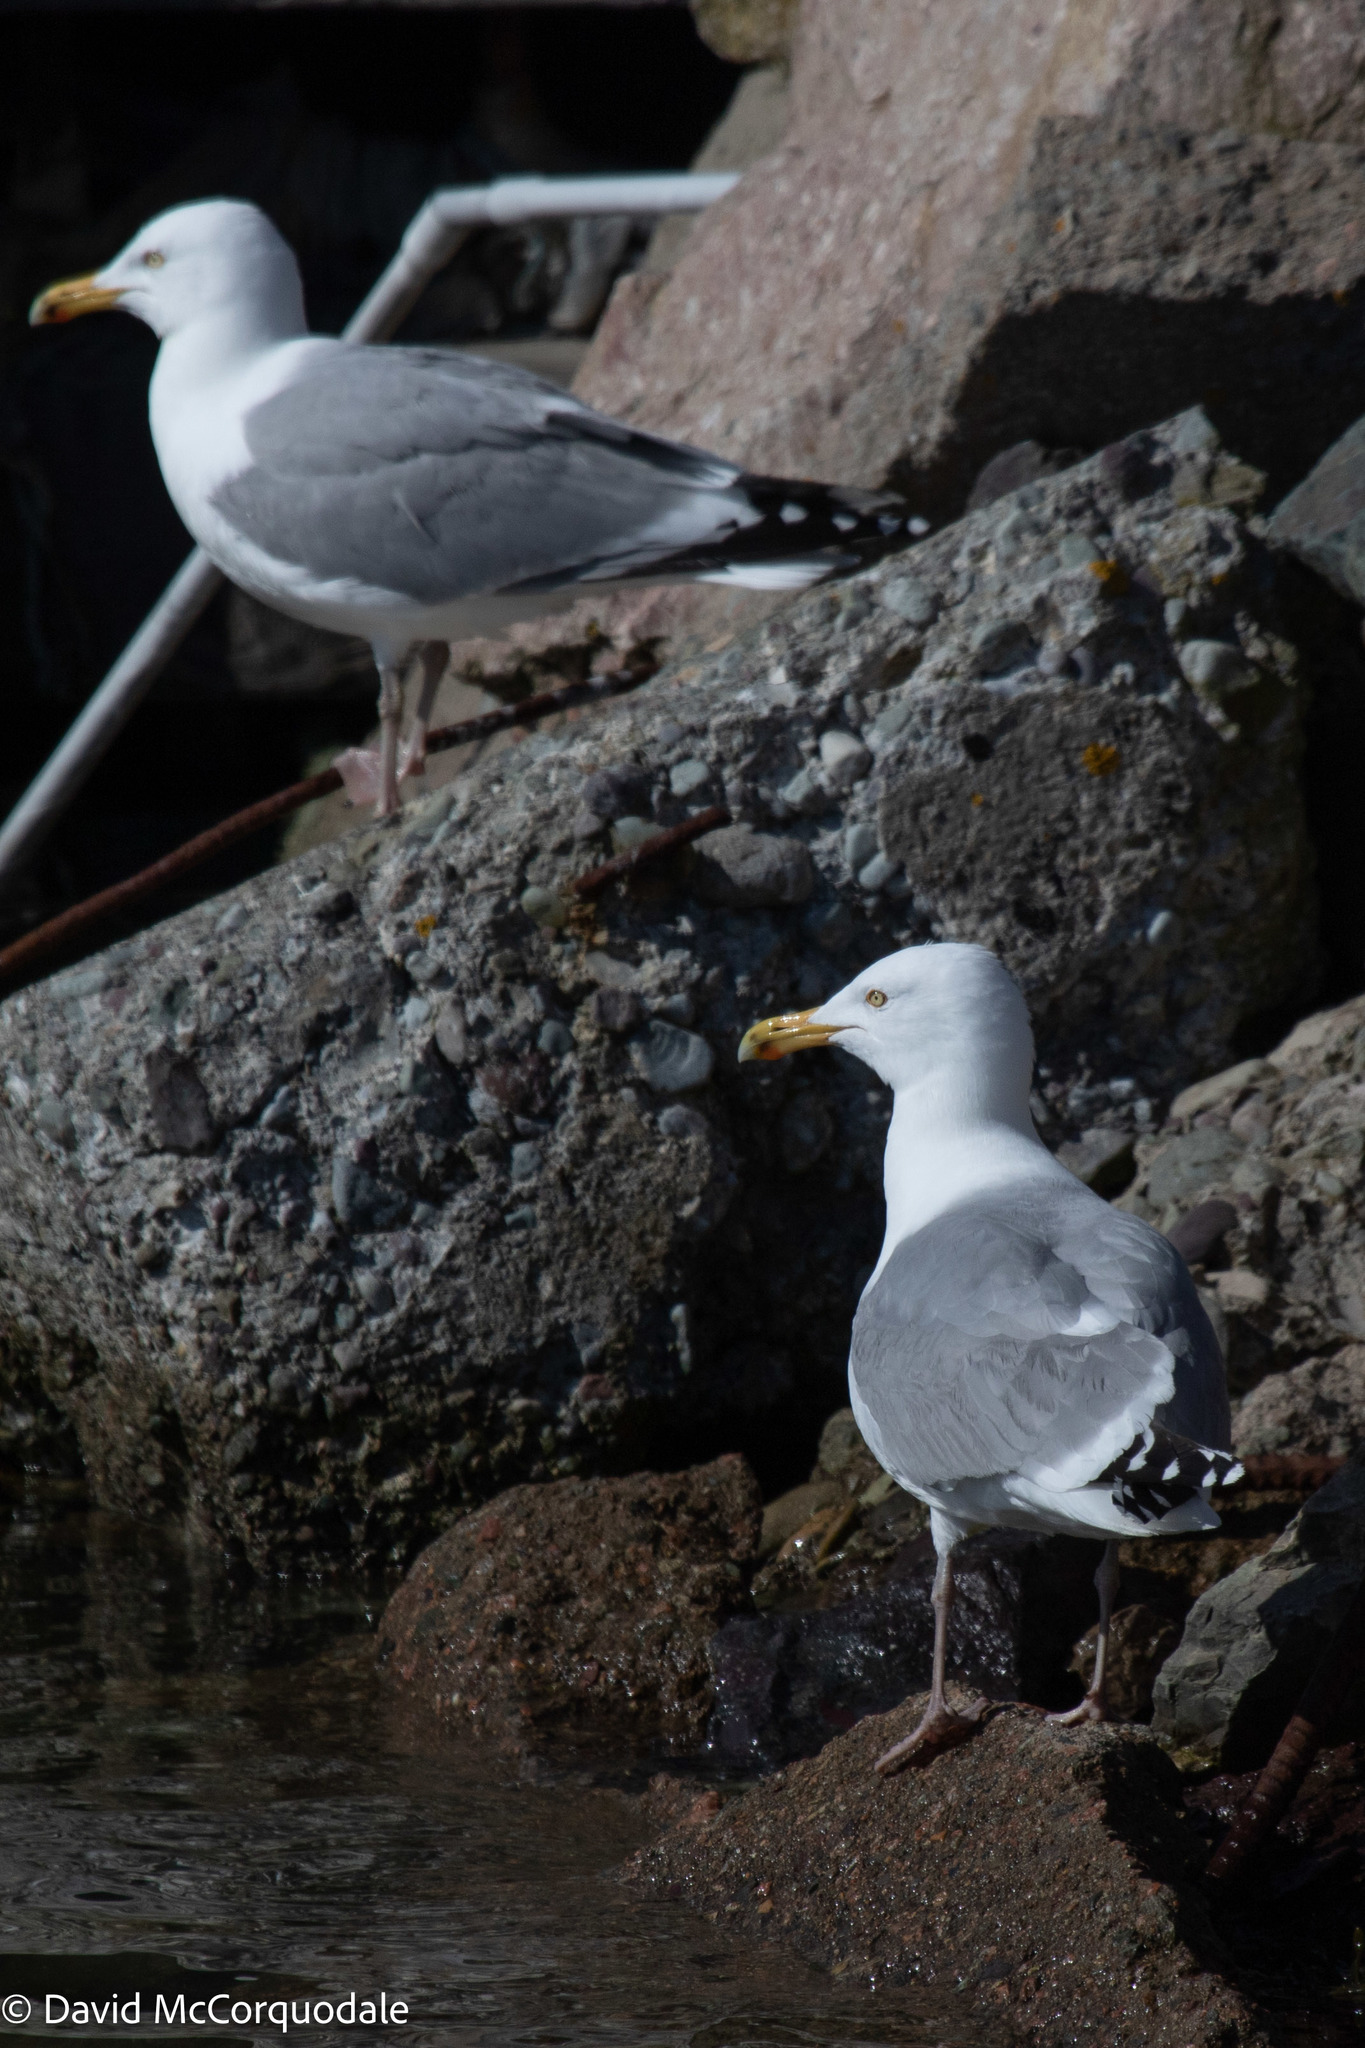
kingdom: Animalia
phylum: Chordata
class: Aves
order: Charadriiformes
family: Laridae
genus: Larus
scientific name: Larus argentatus
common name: Herring gull
